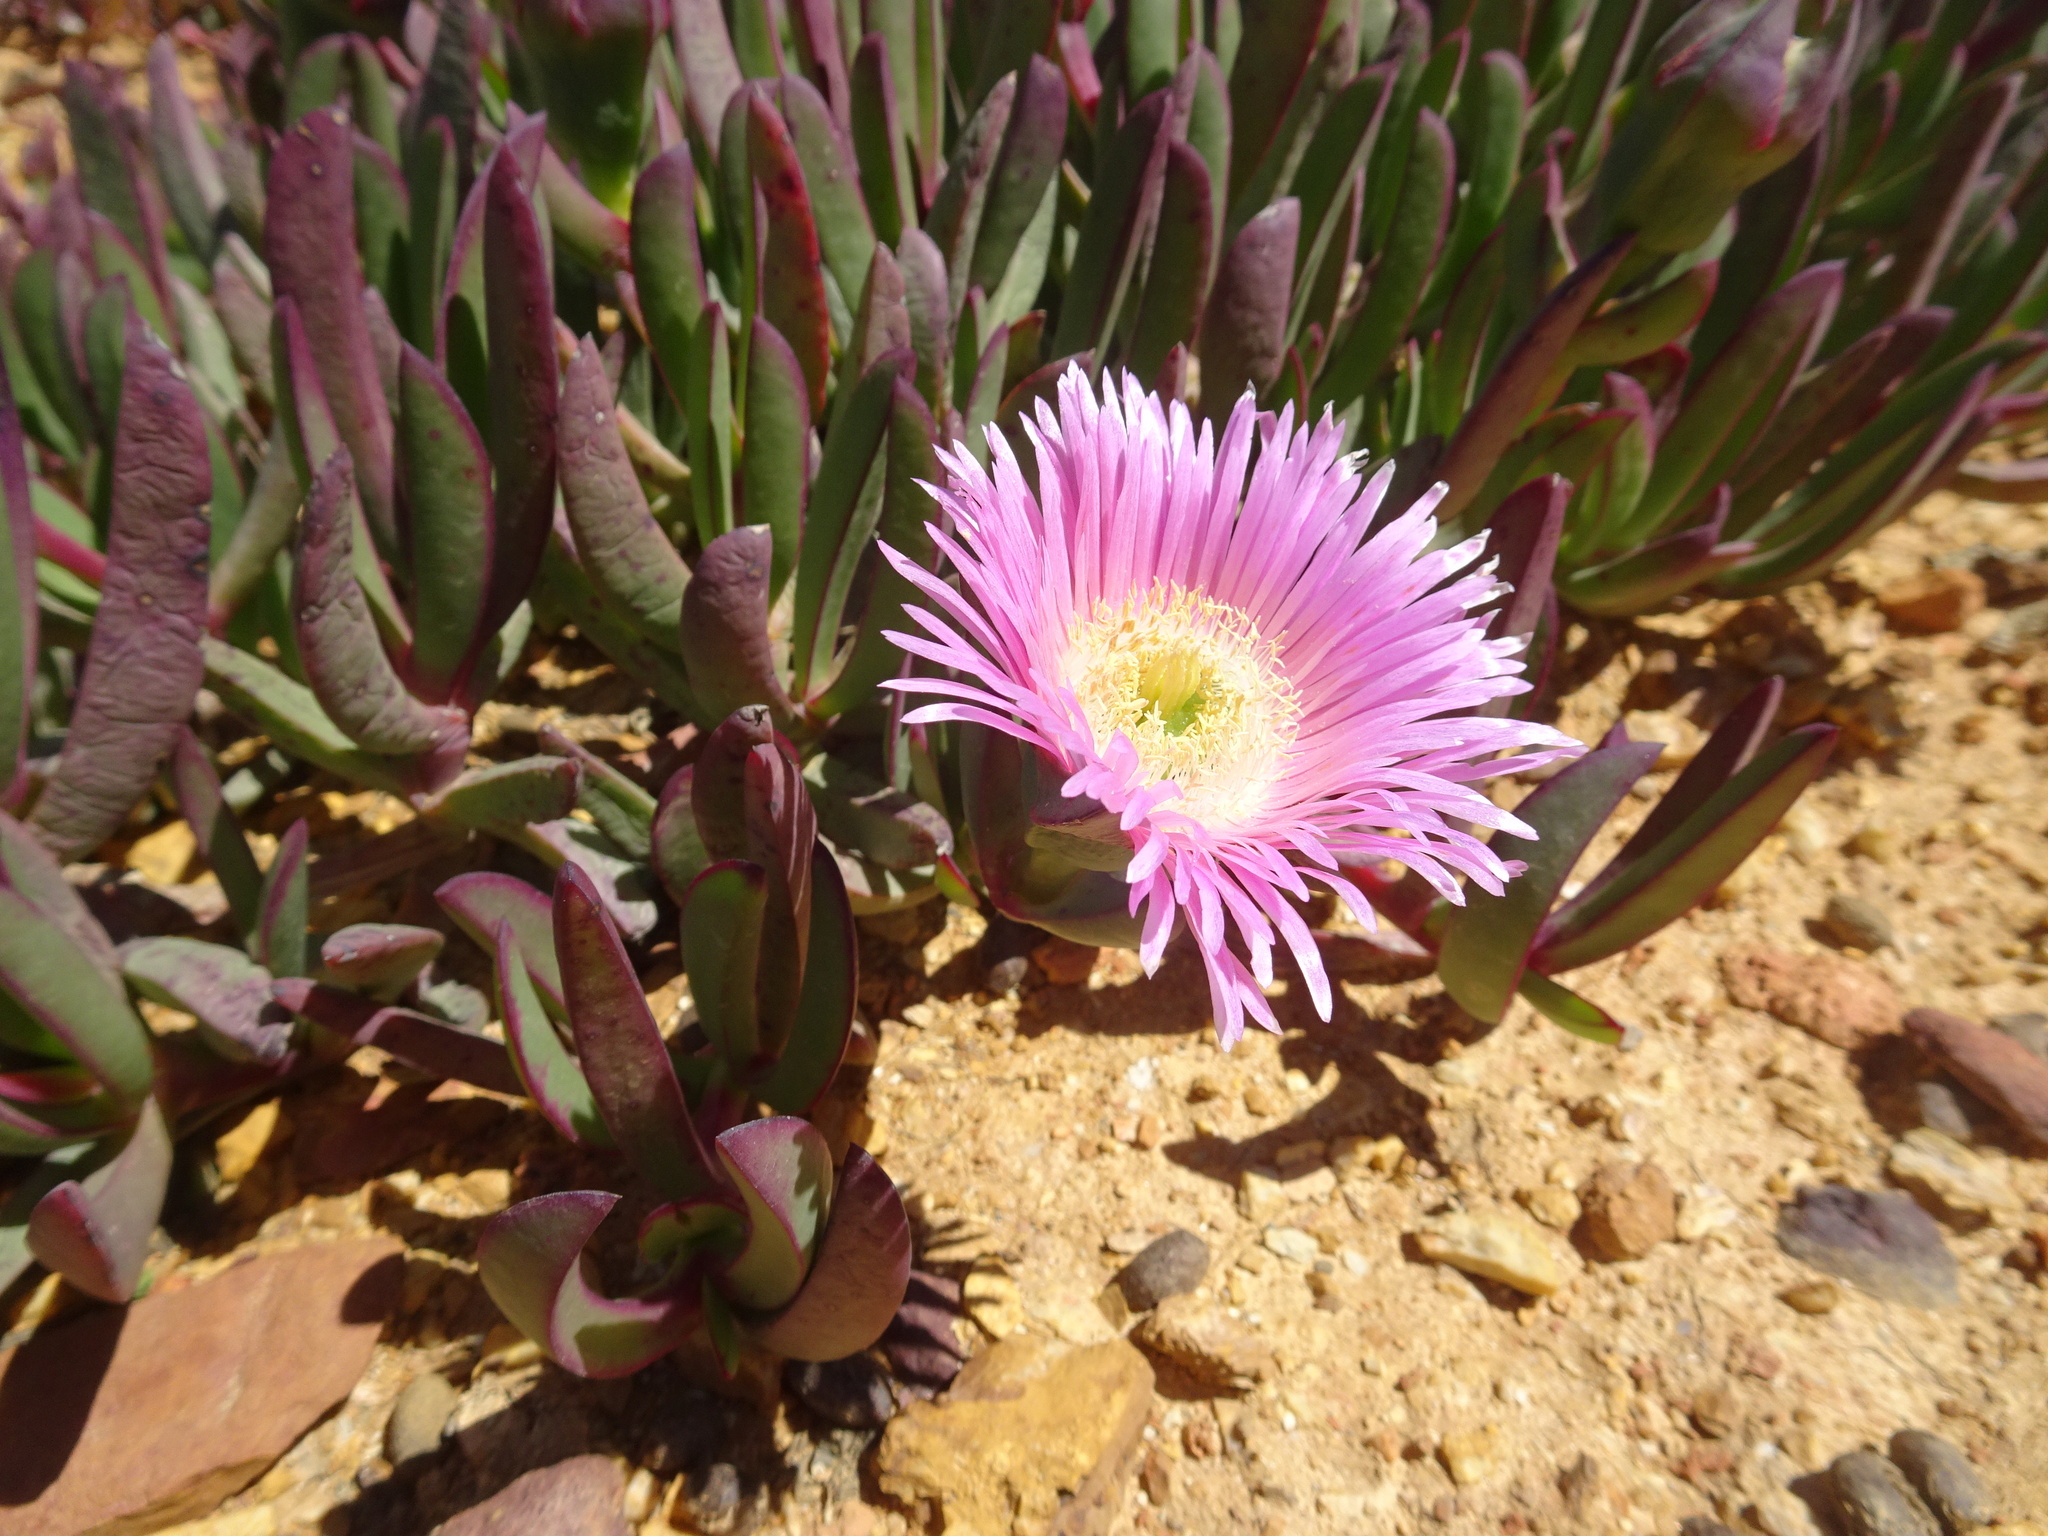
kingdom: Plantae
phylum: Tracheophyta
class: Magnoliopsida
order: Caryophyllales
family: Aizoaceae
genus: Carpobrotus
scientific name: Carpobrotus mellei
